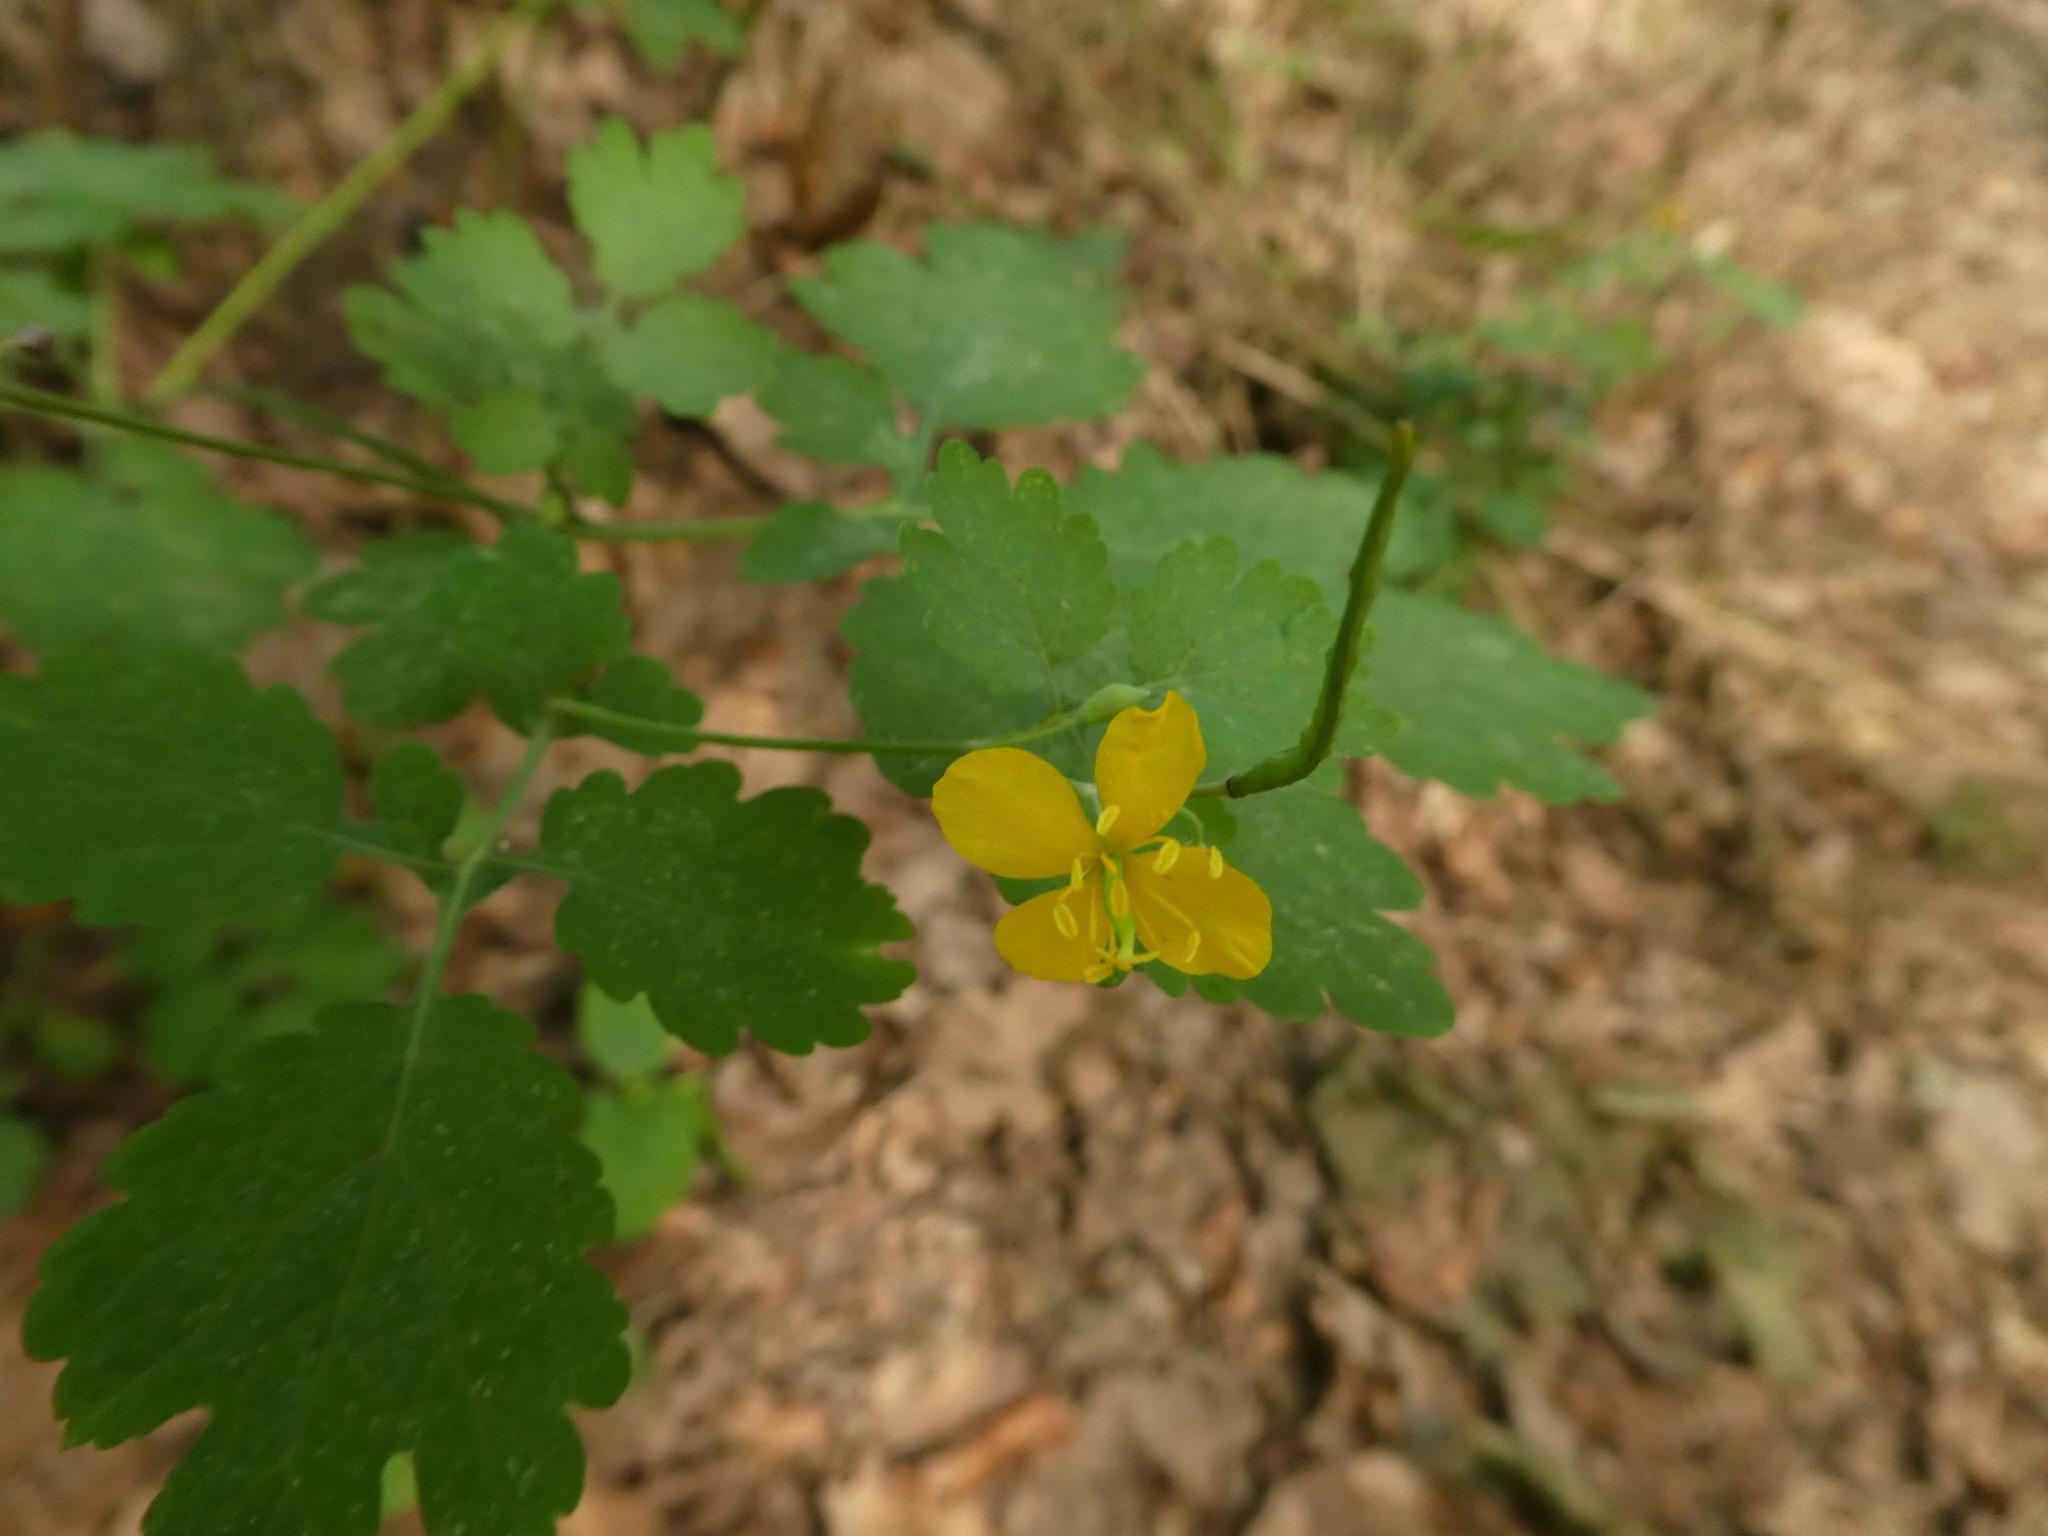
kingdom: Plantae
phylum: Tracheophyta
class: Magnoliopsida
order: Ranunculales
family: Papaveraceae
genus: Chelidonium
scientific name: Chelidonium majus
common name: Greater celandine
